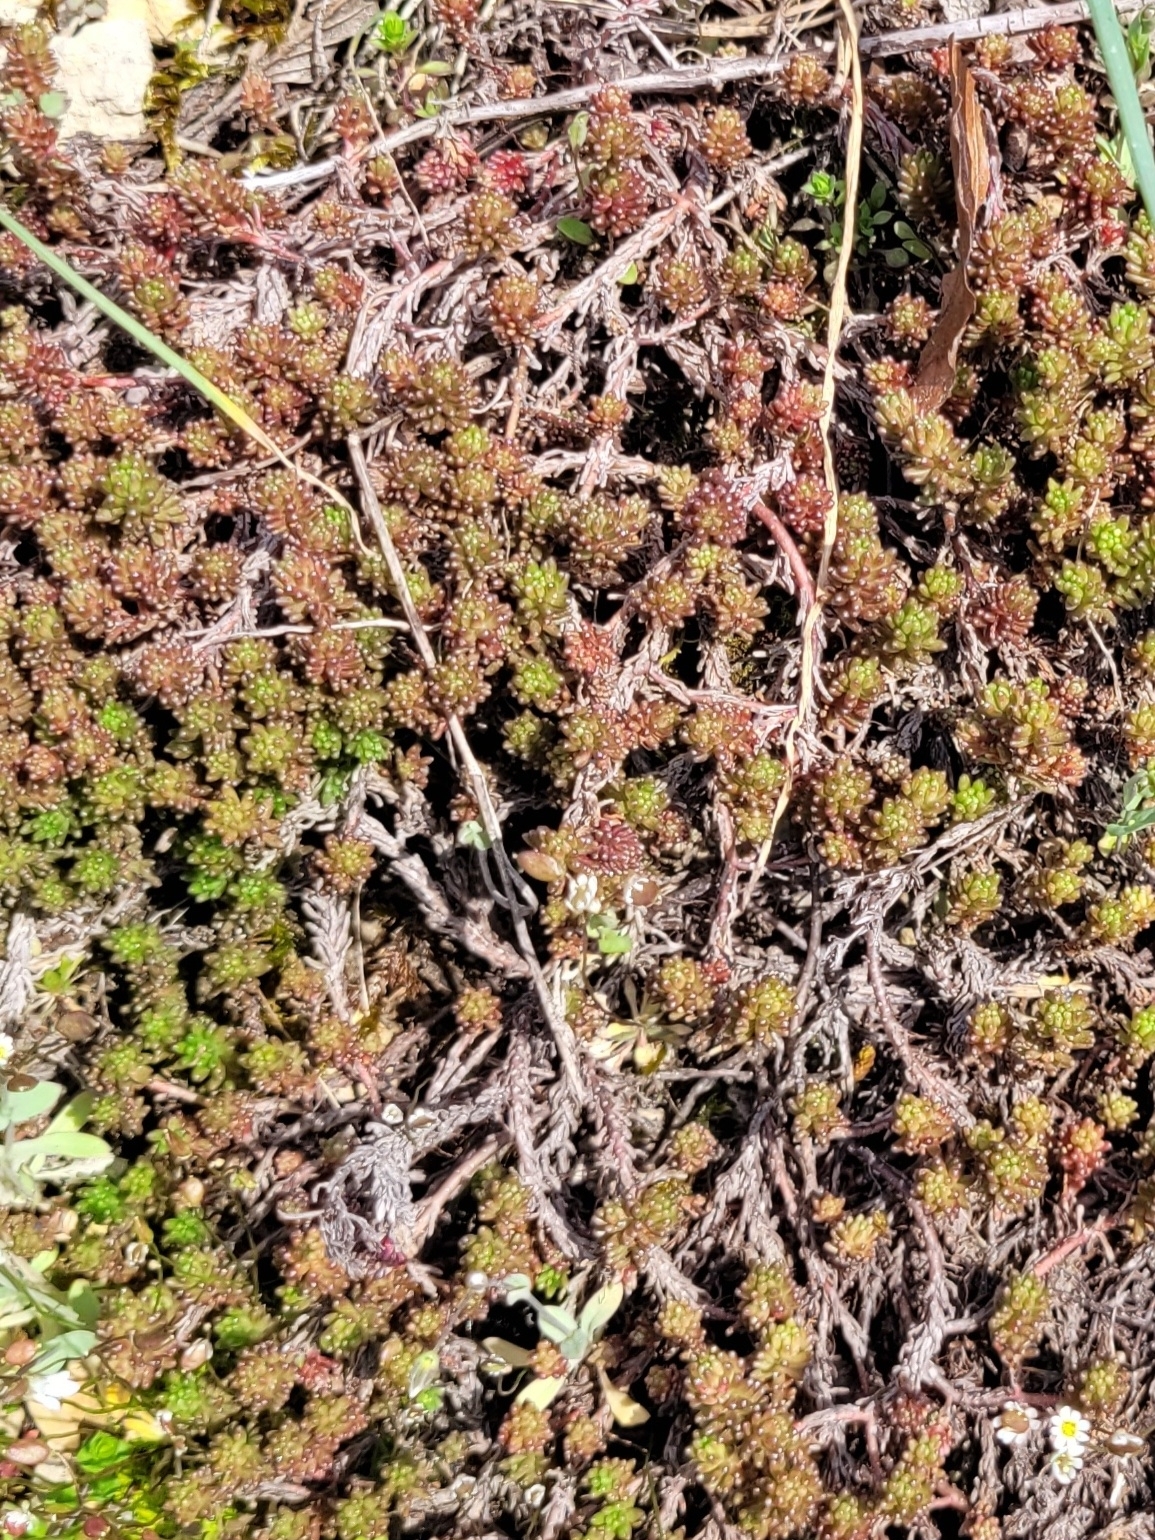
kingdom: Plantae
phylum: Tracheophyta
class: Magnoliopsida
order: Saxifragales
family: Crassulaceae
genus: Sedum
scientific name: Sedum sexangulare
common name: Tasteless stonecrop
